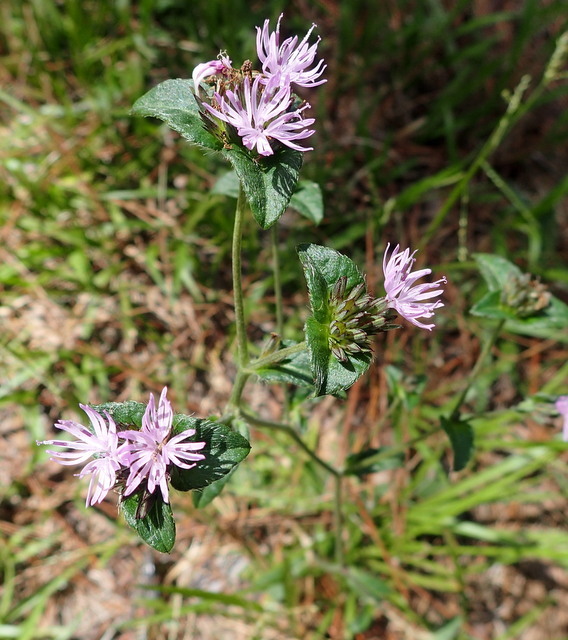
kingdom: Plantae
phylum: Tracheophyta
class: Magnoliopsida
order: Asterales
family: Asteraceae
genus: Elephantopus
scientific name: Elephantopus nudatus
